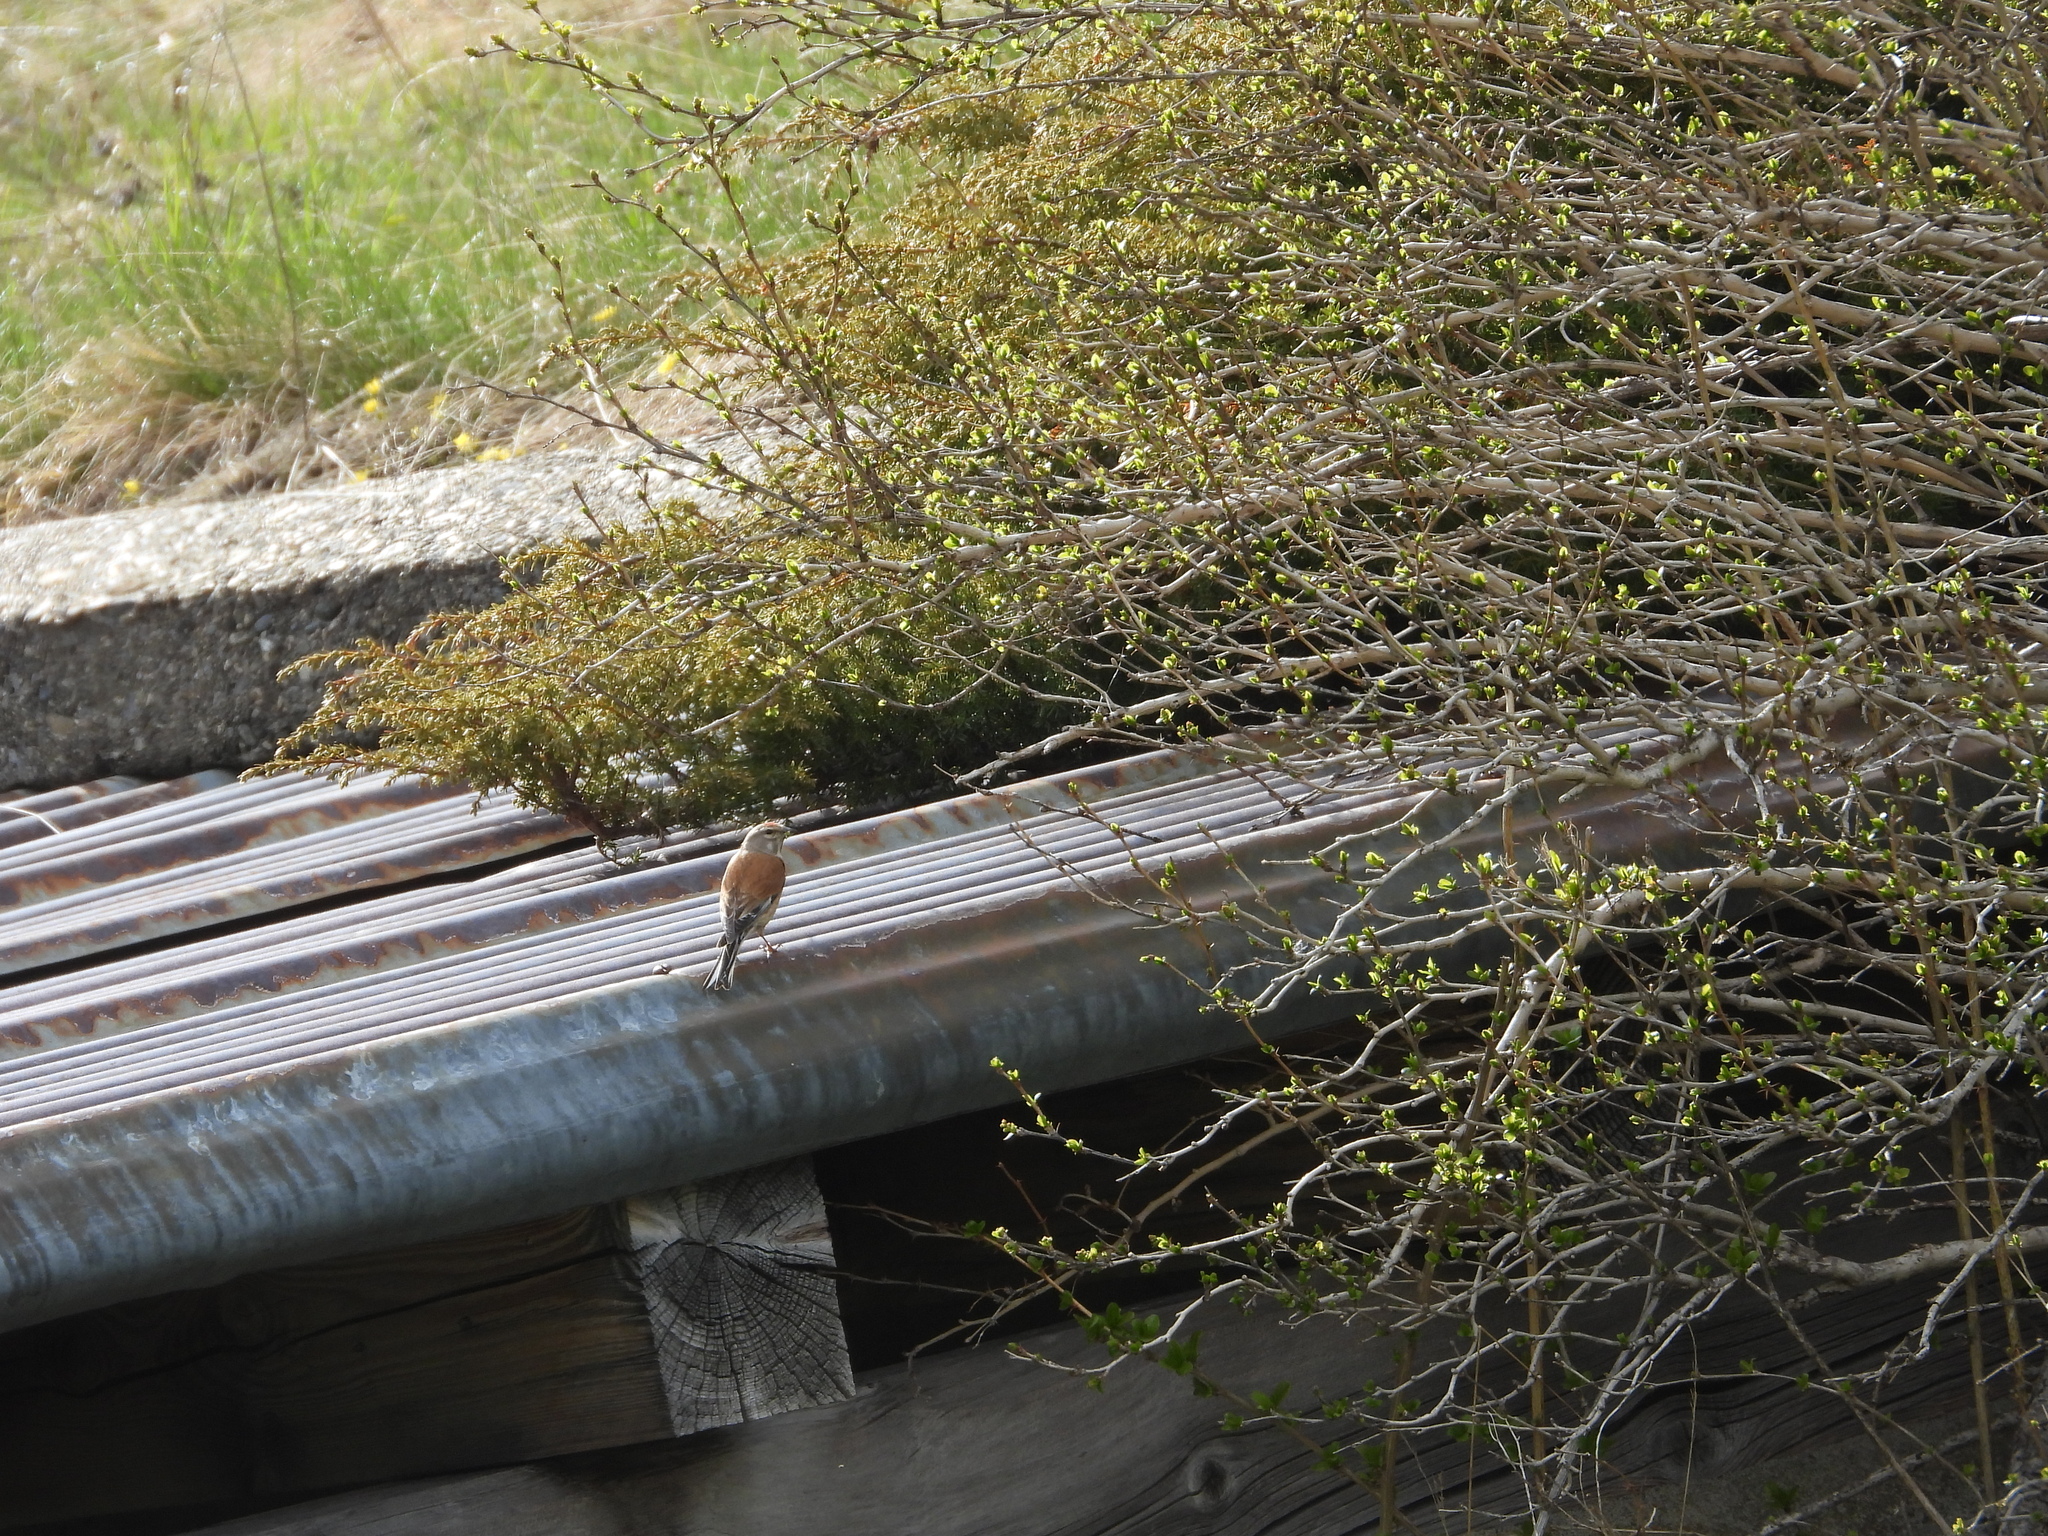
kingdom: Animalia
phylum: Chordata
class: Aves
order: Passeriformes
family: Fringillidae
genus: Linaria
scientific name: Linaria cannabina
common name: Common linnet
